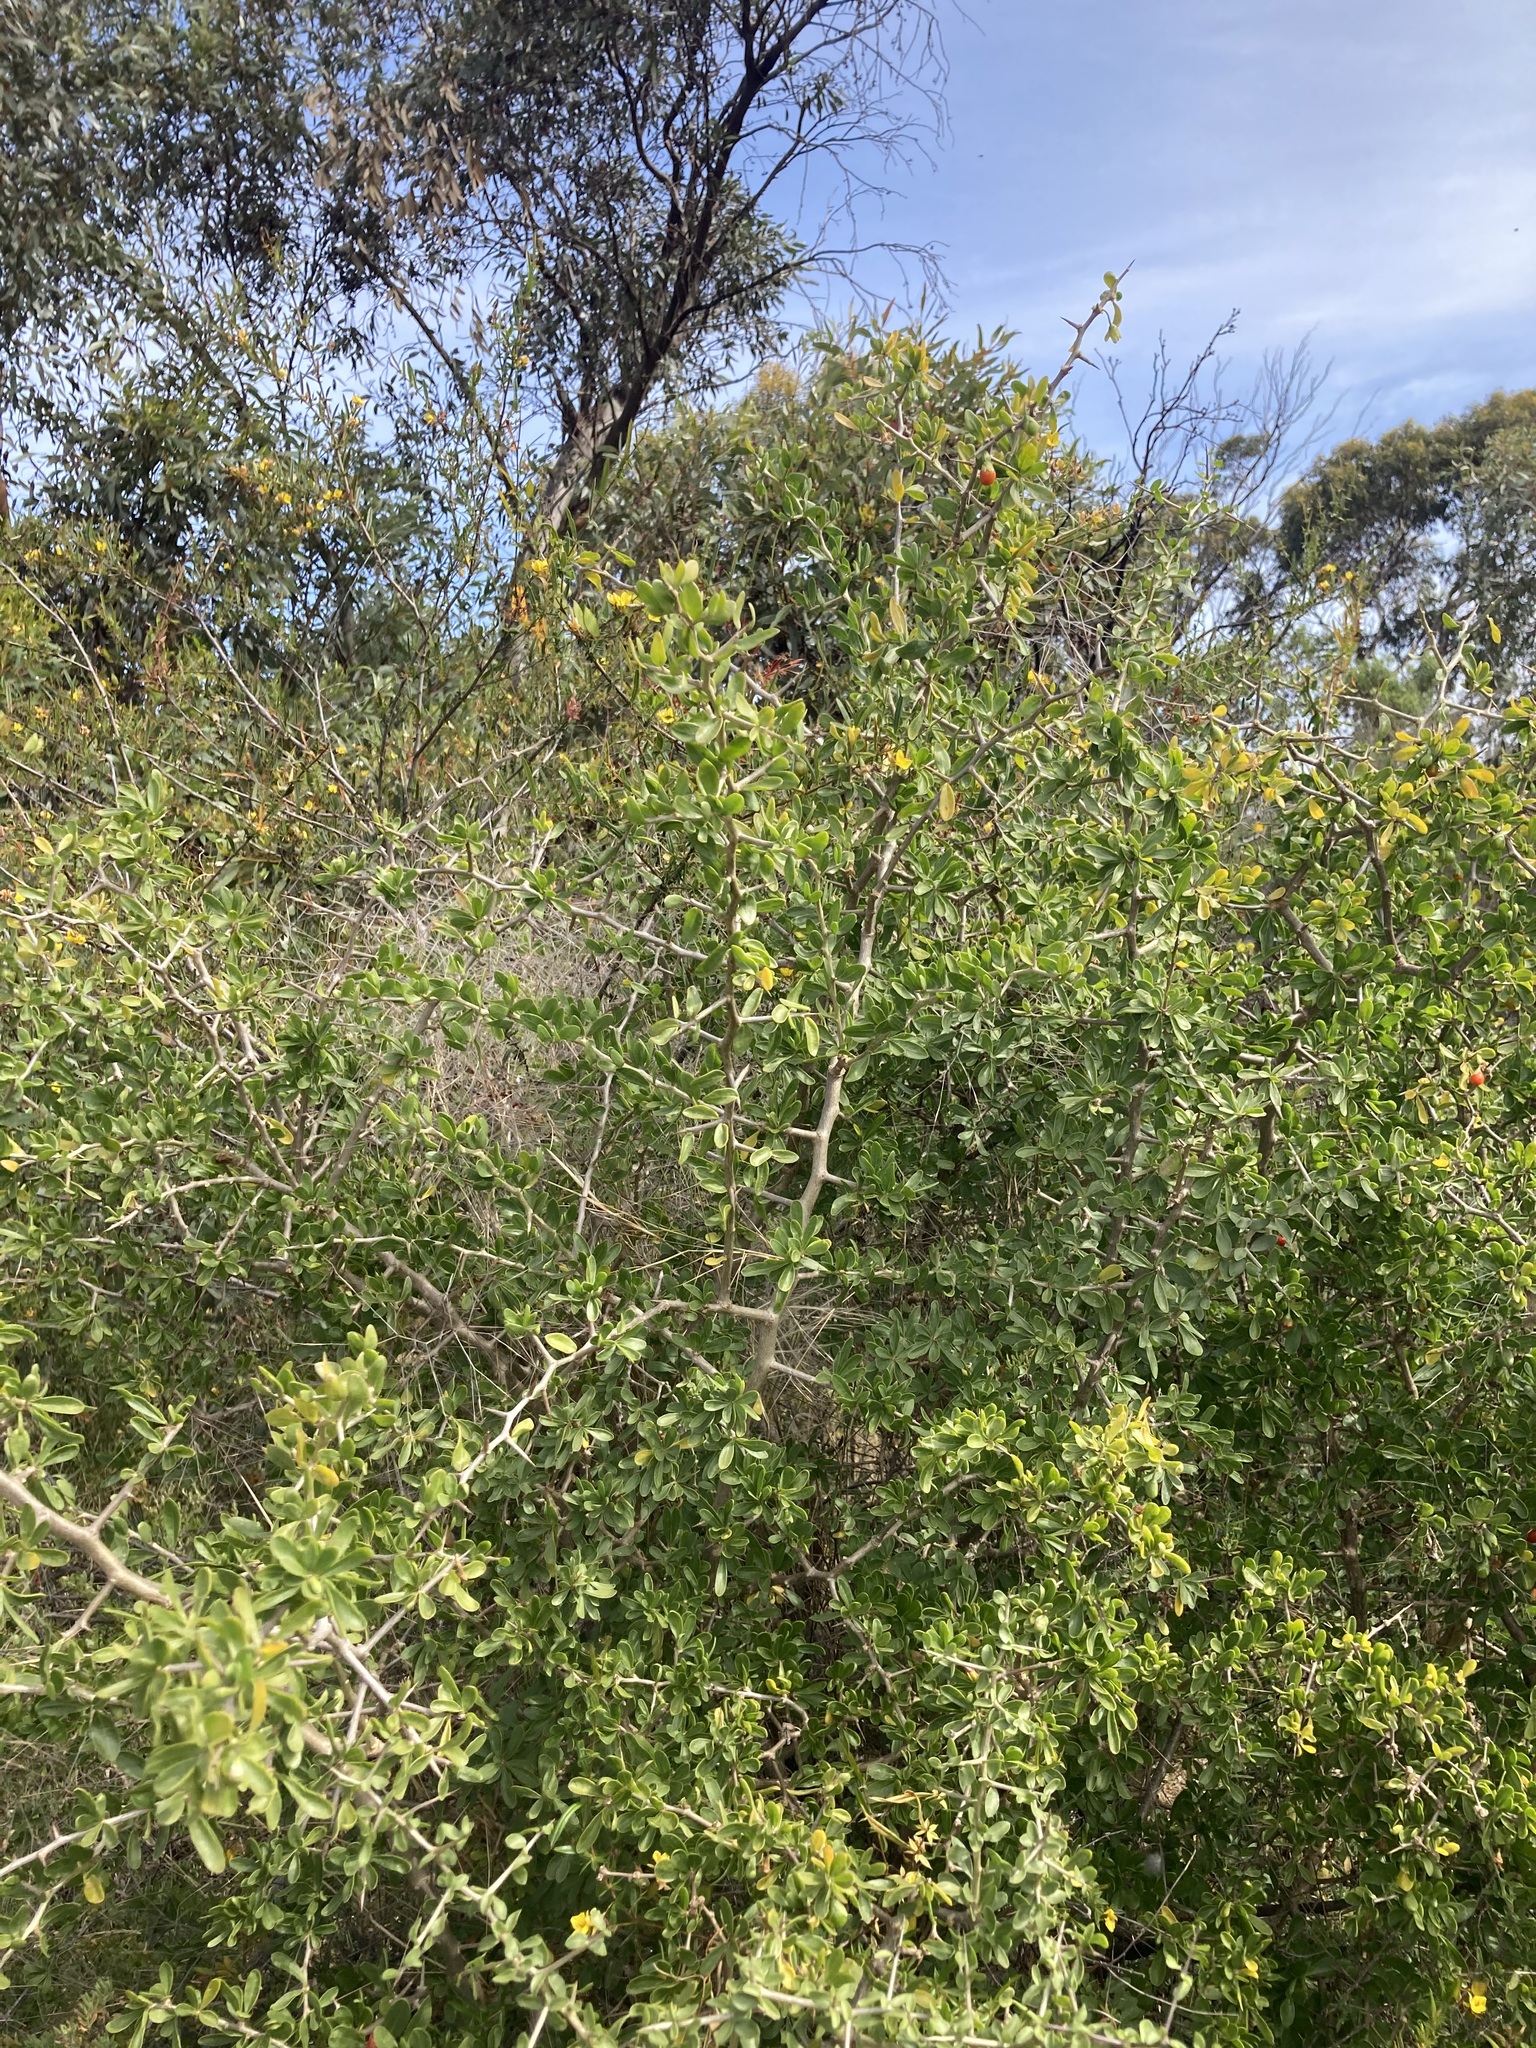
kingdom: Plantae
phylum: Tracheophyta
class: Magnoliopsida
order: Solanales
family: Solanaceae
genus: Lycium
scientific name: Lycium ferocissimum
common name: African boxthorn
